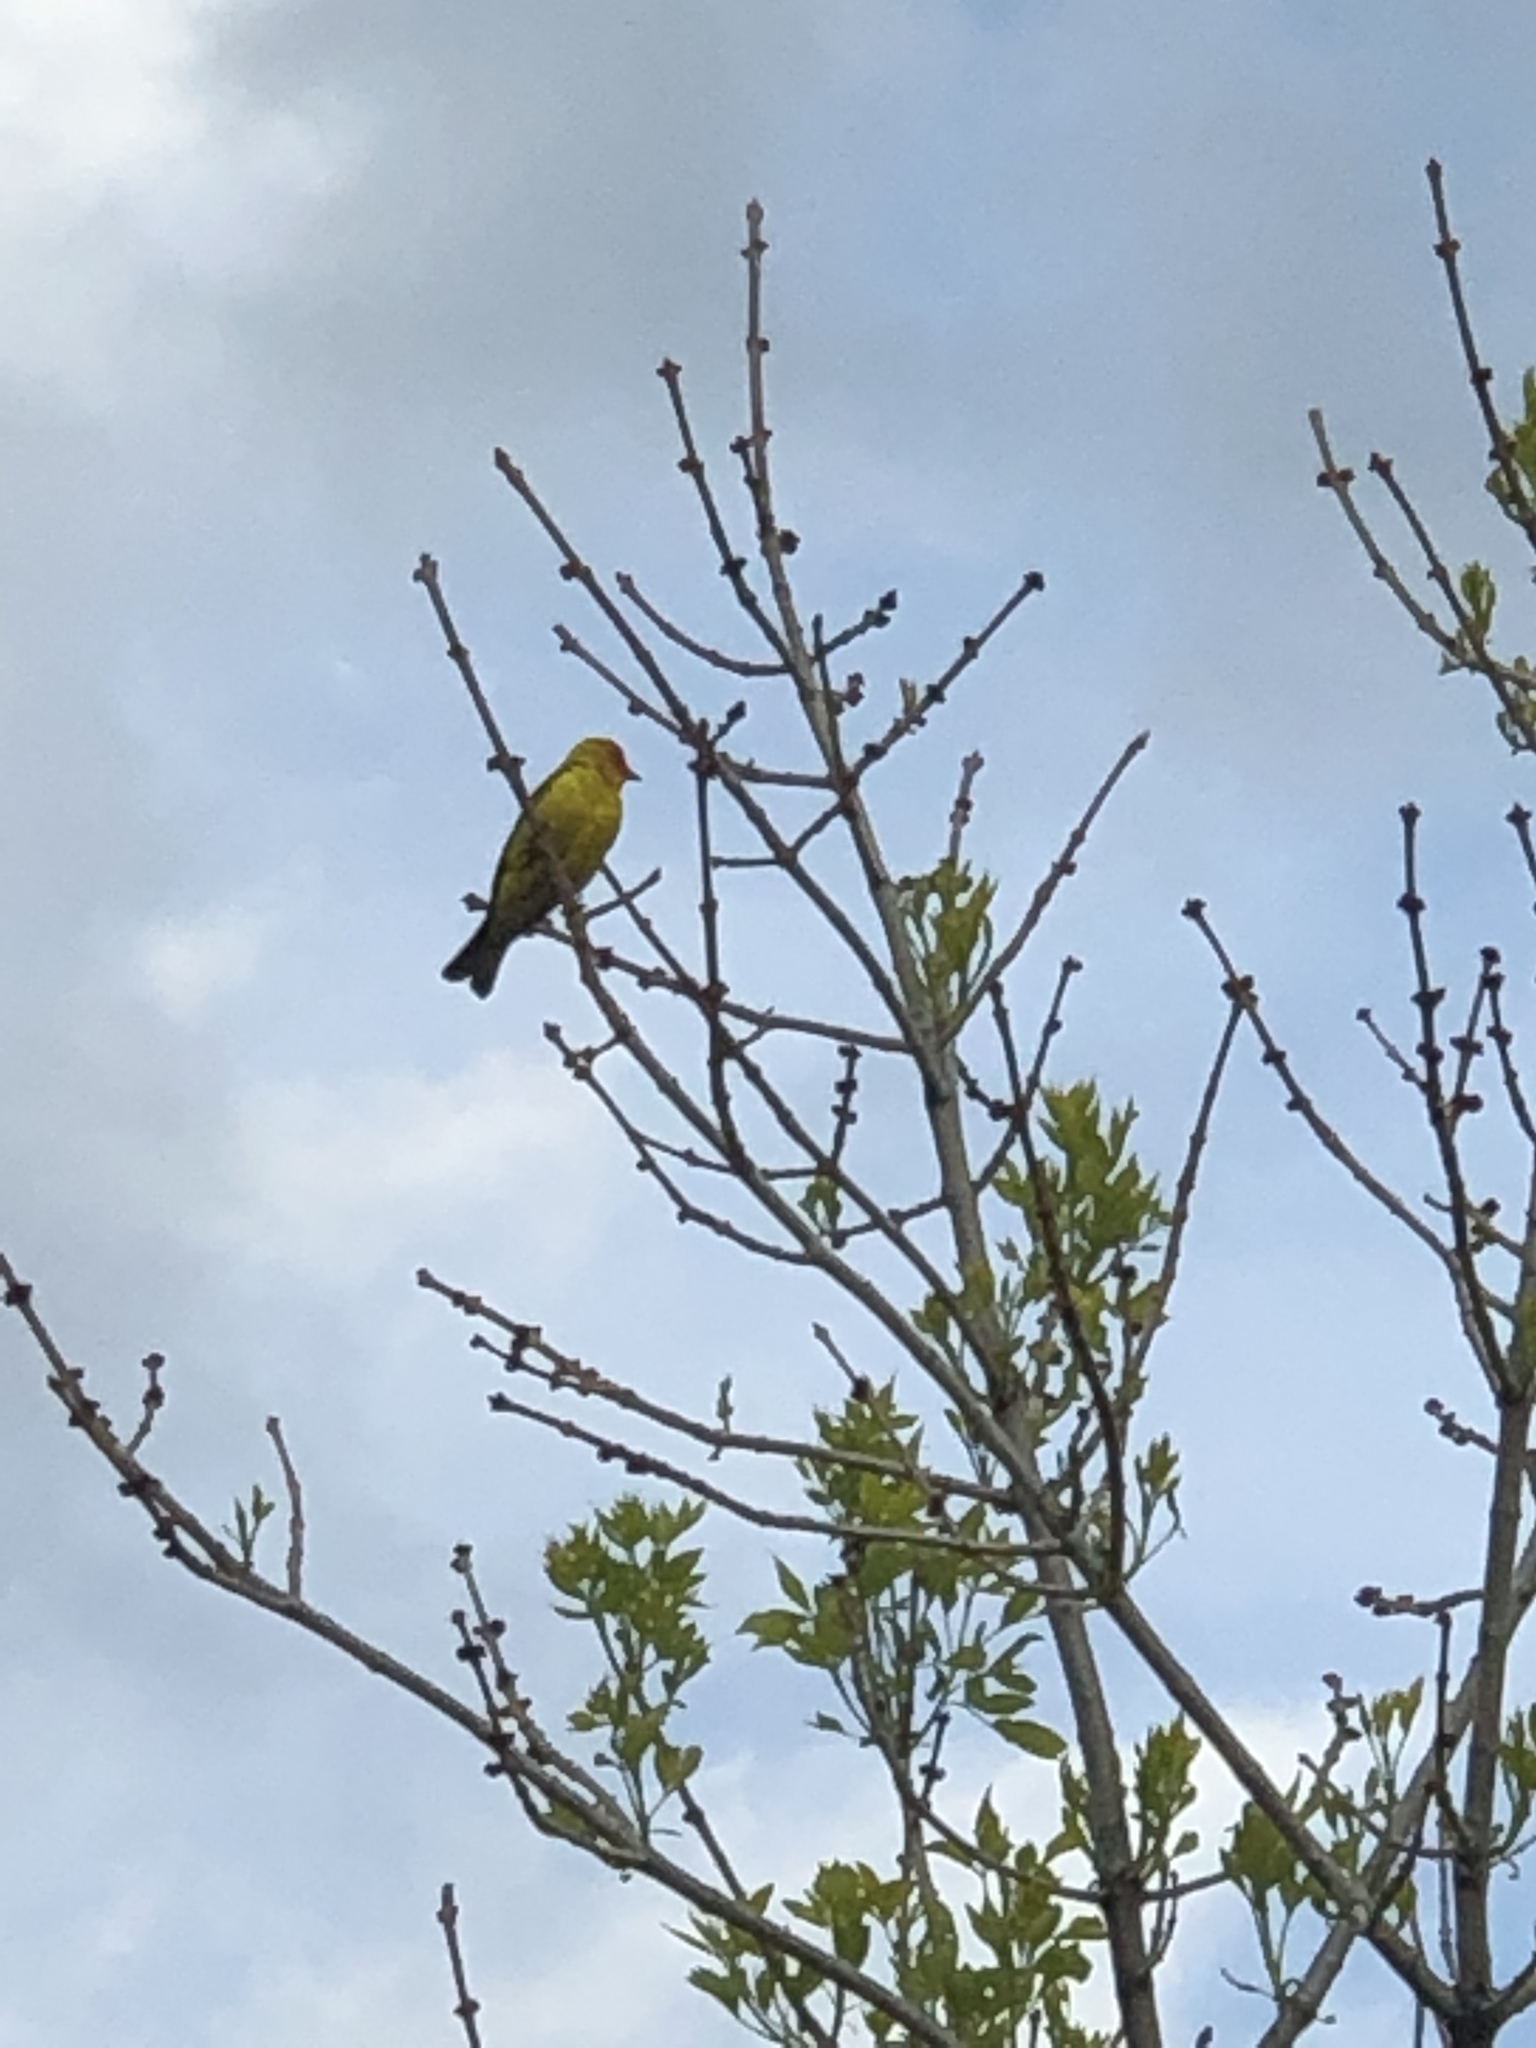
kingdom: Animalia
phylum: Chordata
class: Aves
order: Passeriformes
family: Cardinalidae
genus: Piranga
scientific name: Piranga ludoviciana
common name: Western tanager
